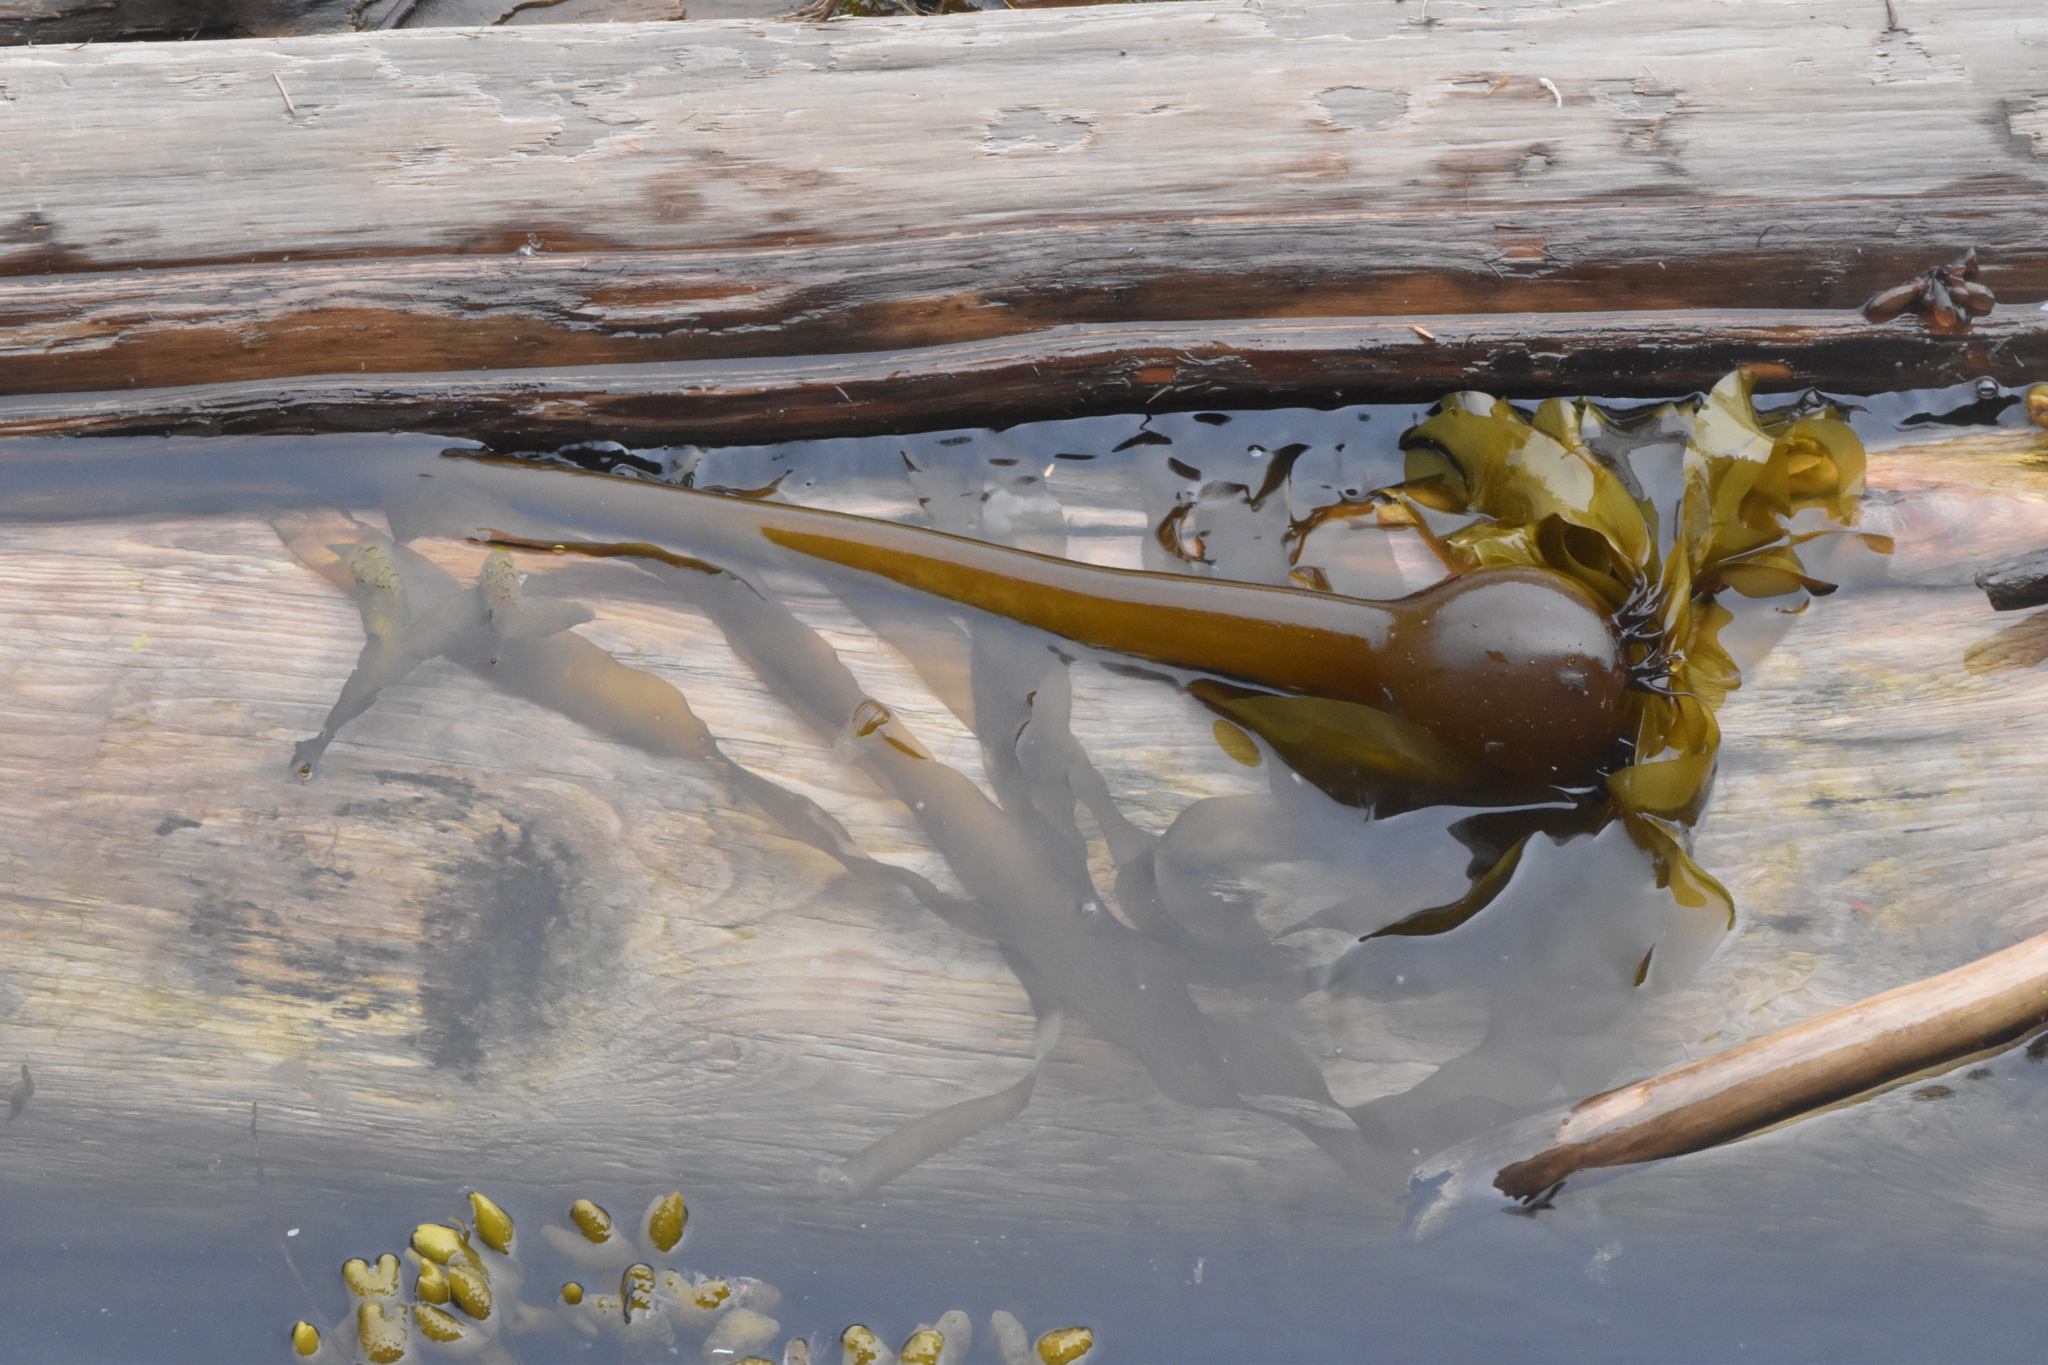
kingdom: Chromista
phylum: Ochrophyta
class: Phaeophyceae
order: Laminariales
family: Laminariaceae
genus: Nereocystis
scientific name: Nereocystis luetkeana
